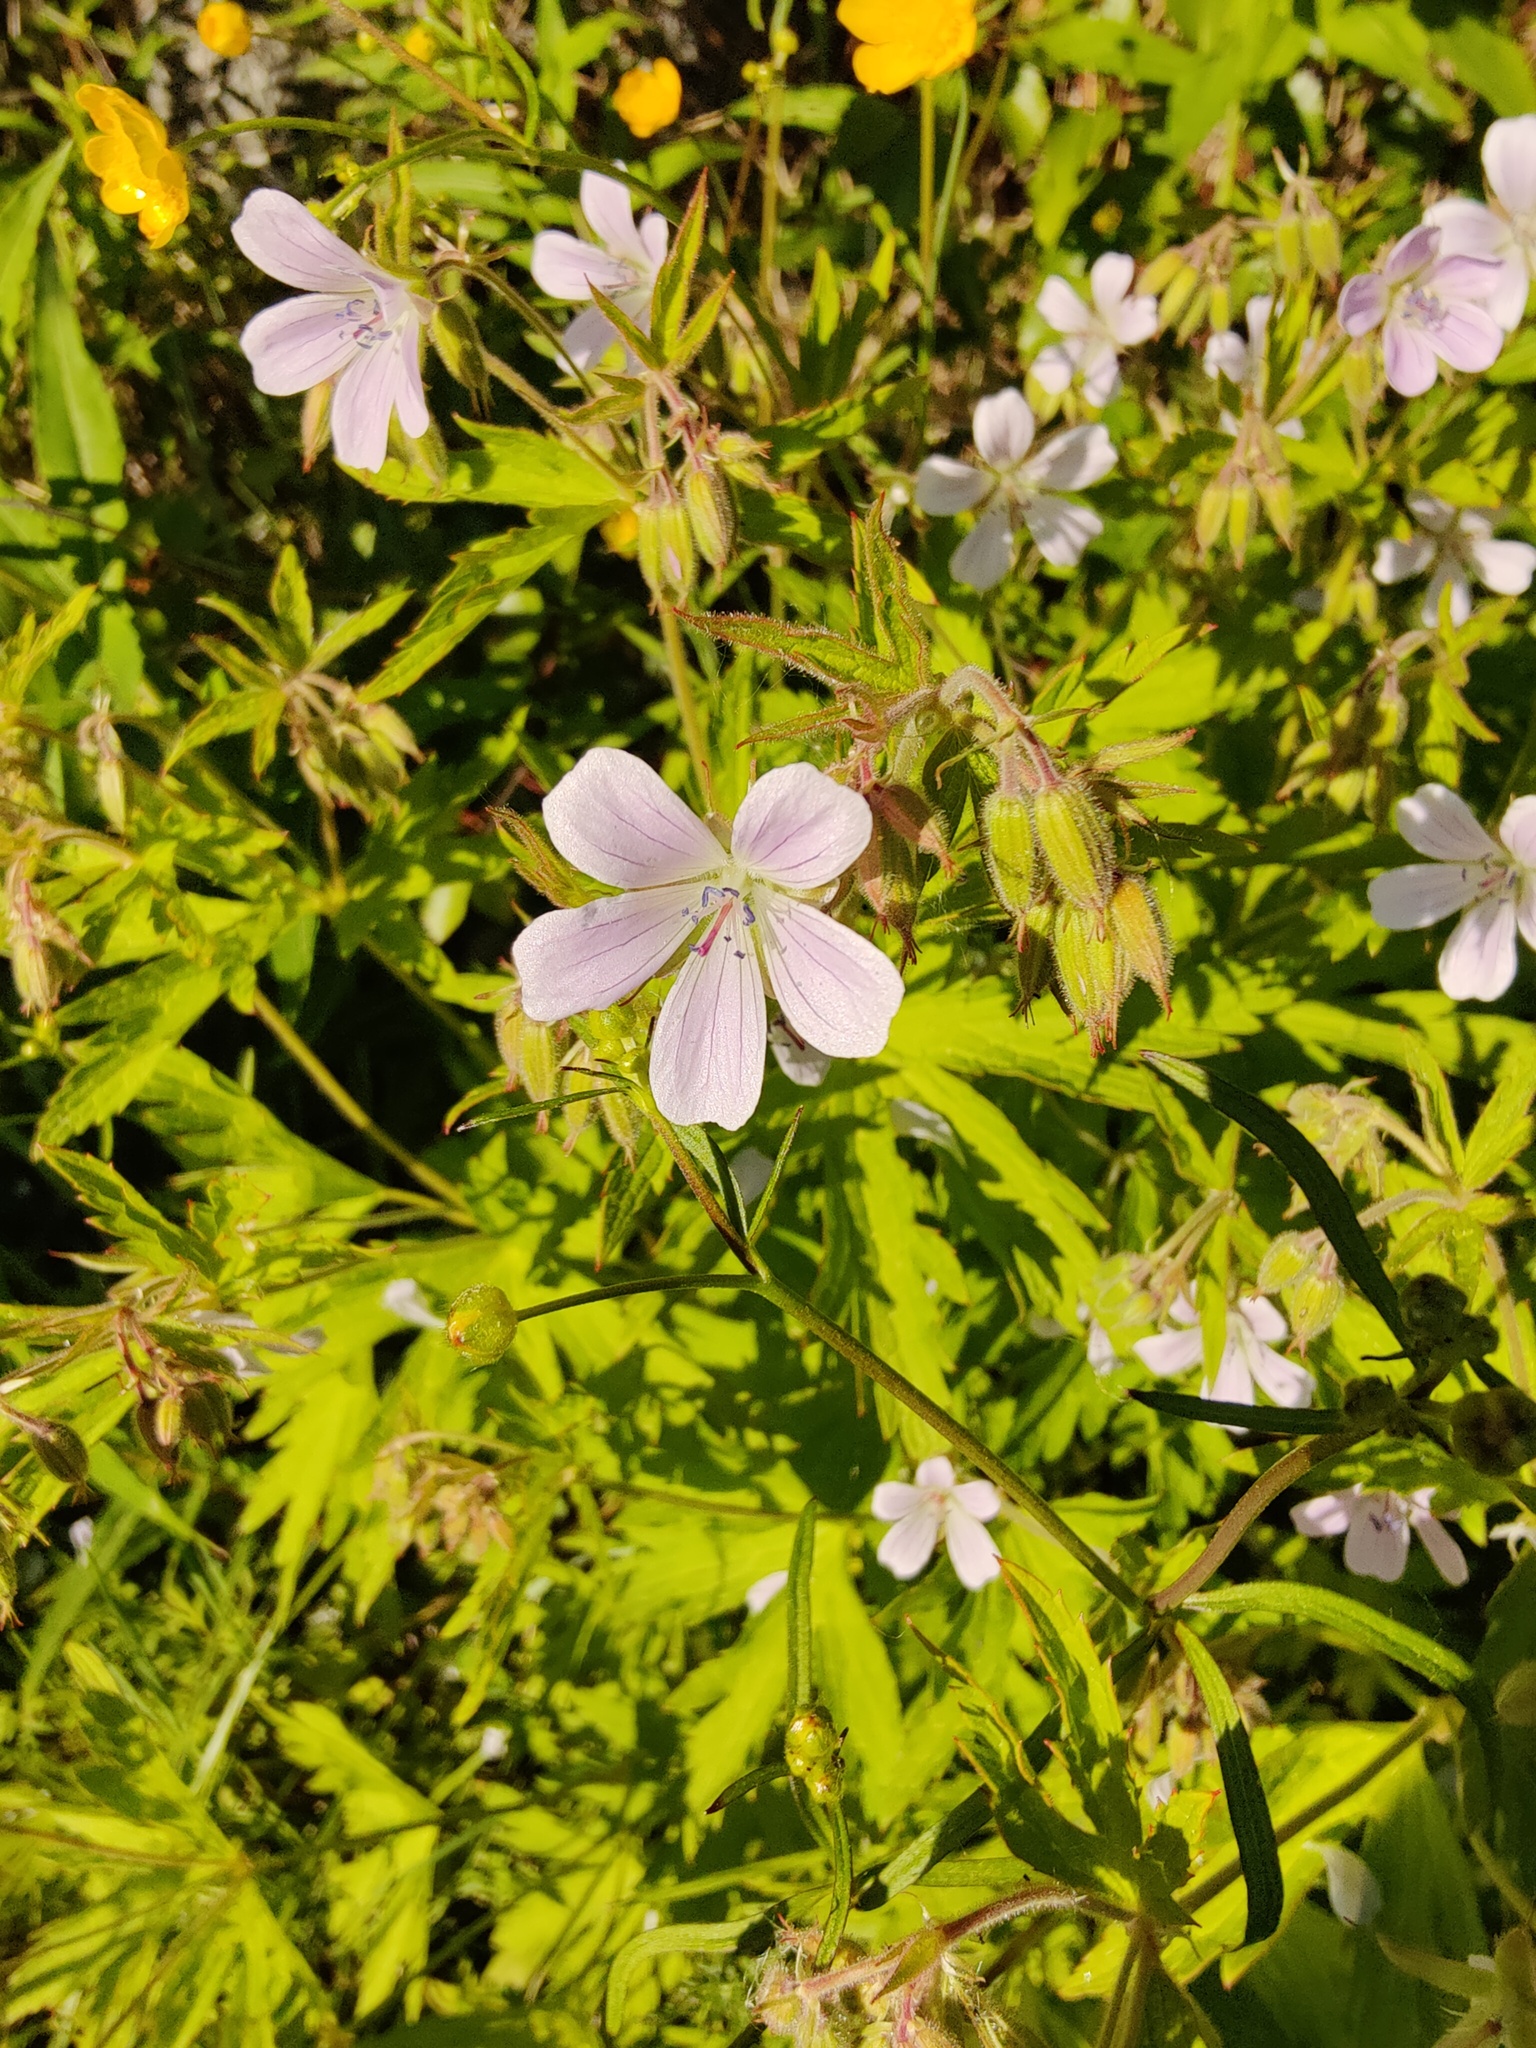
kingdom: Plantae
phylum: Tracheophyta
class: Magnoliopsida
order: Geraniales
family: Geraniaceae
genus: Geranium
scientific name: Geranium sylvaticum
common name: Wood crane's-bill
